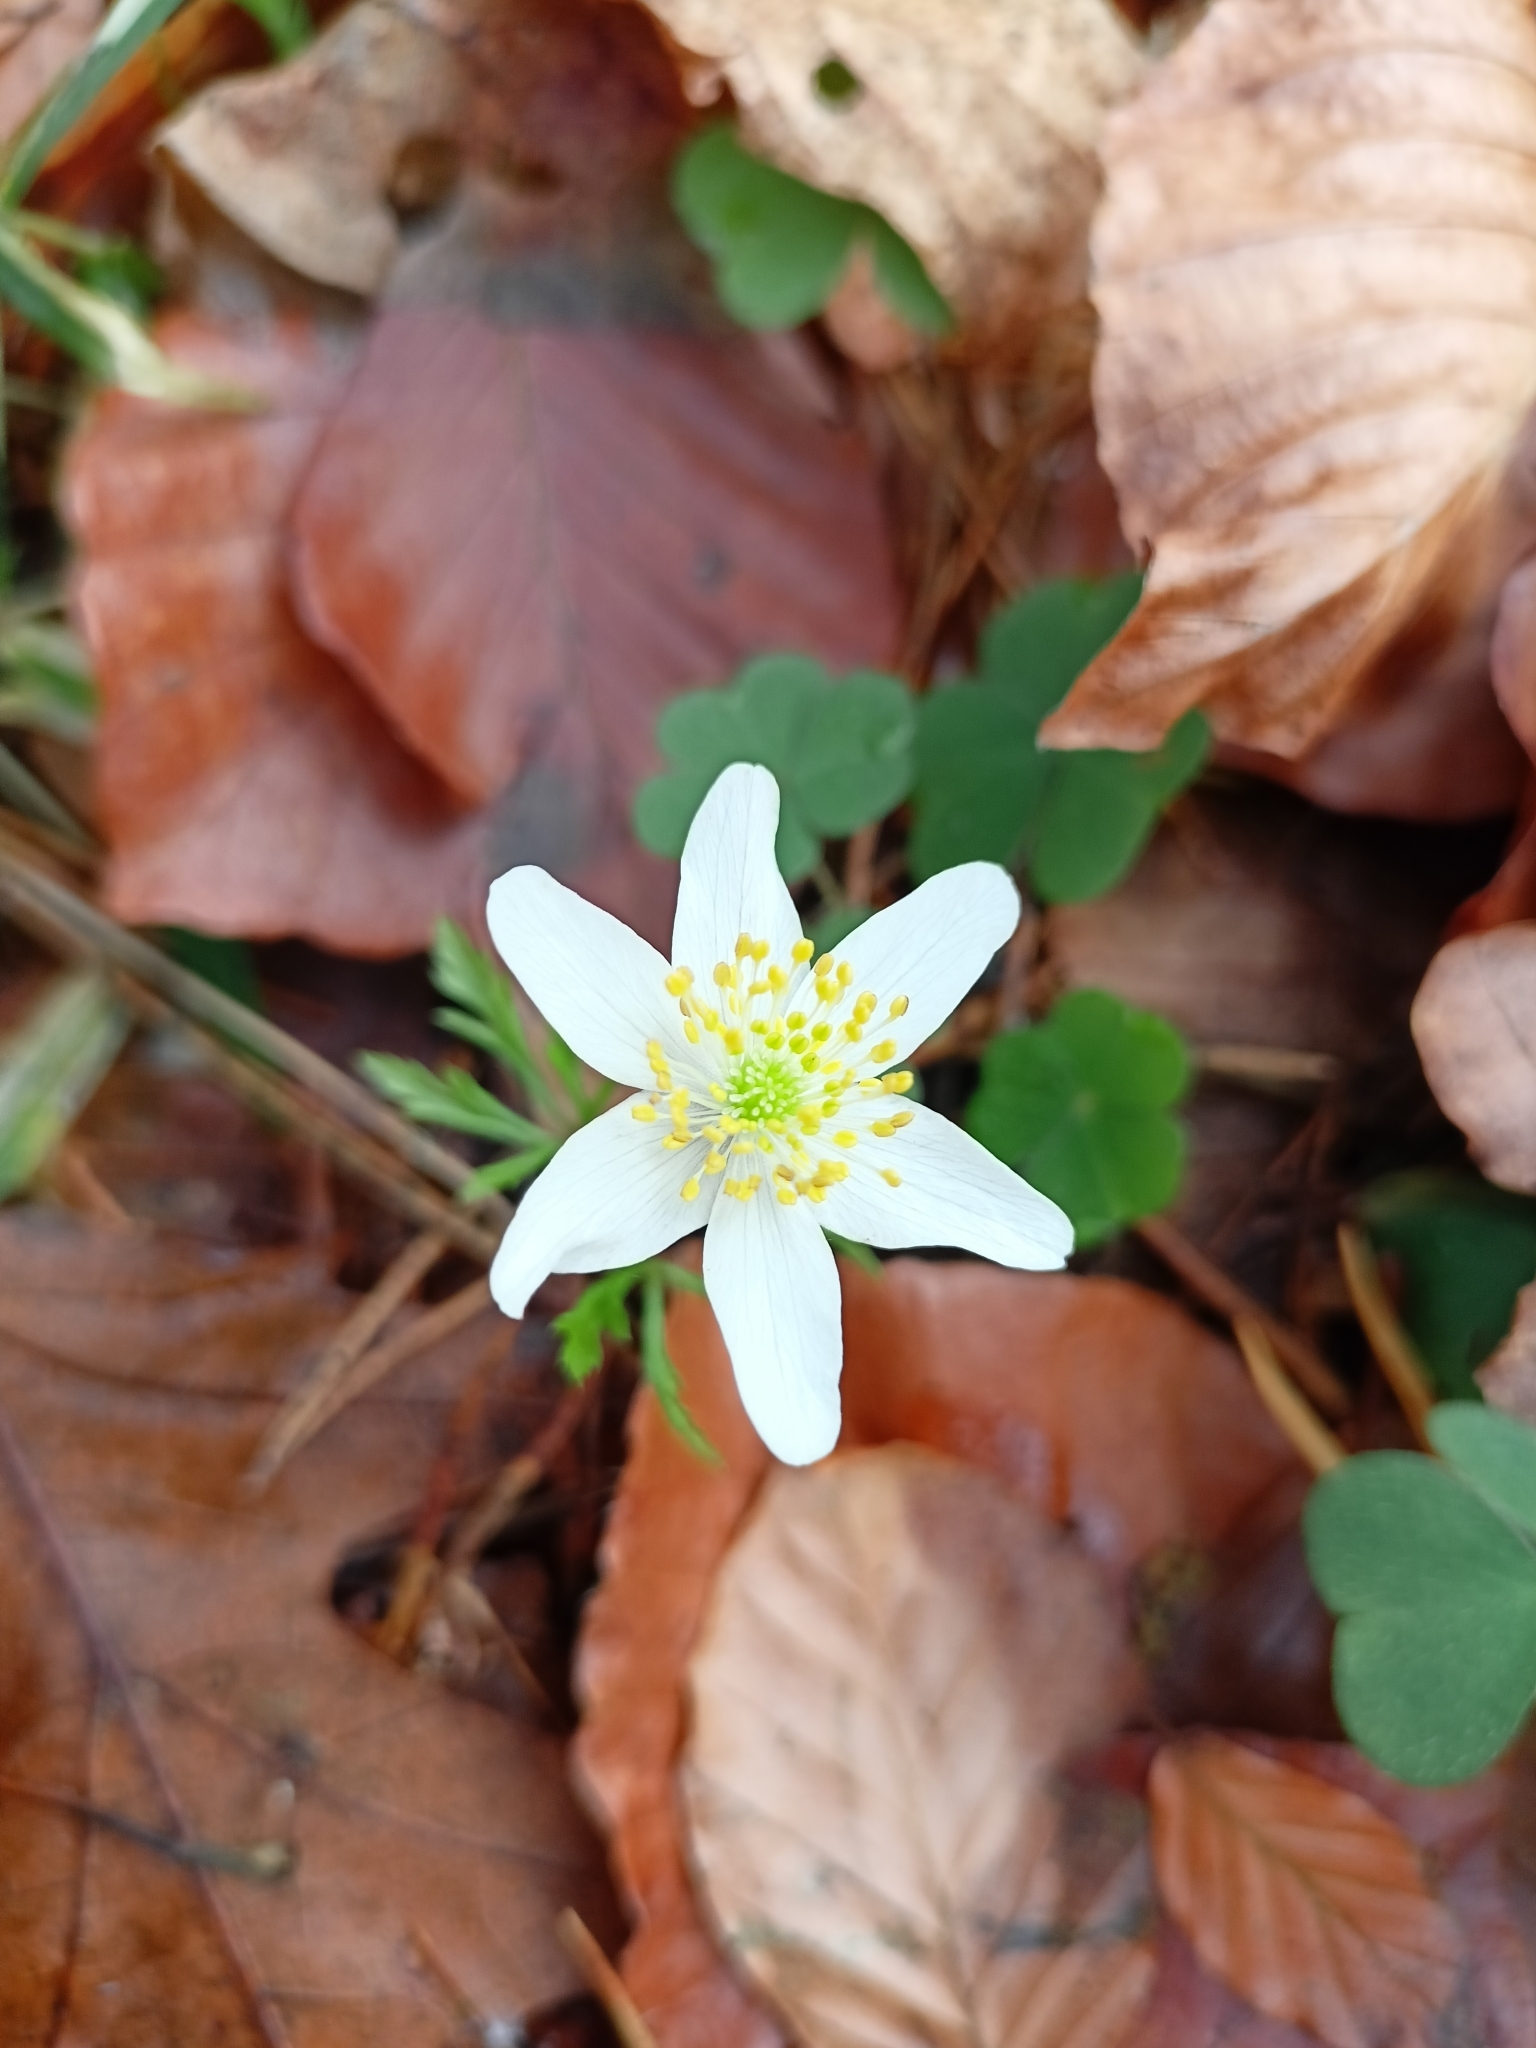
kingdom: Plantae
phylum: Tracheophyta
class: Magnoliopsida
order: Ranunculales
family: Ranunculaceae
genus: Anemone
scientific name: Anemone nemorosa
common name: Wood anemone
